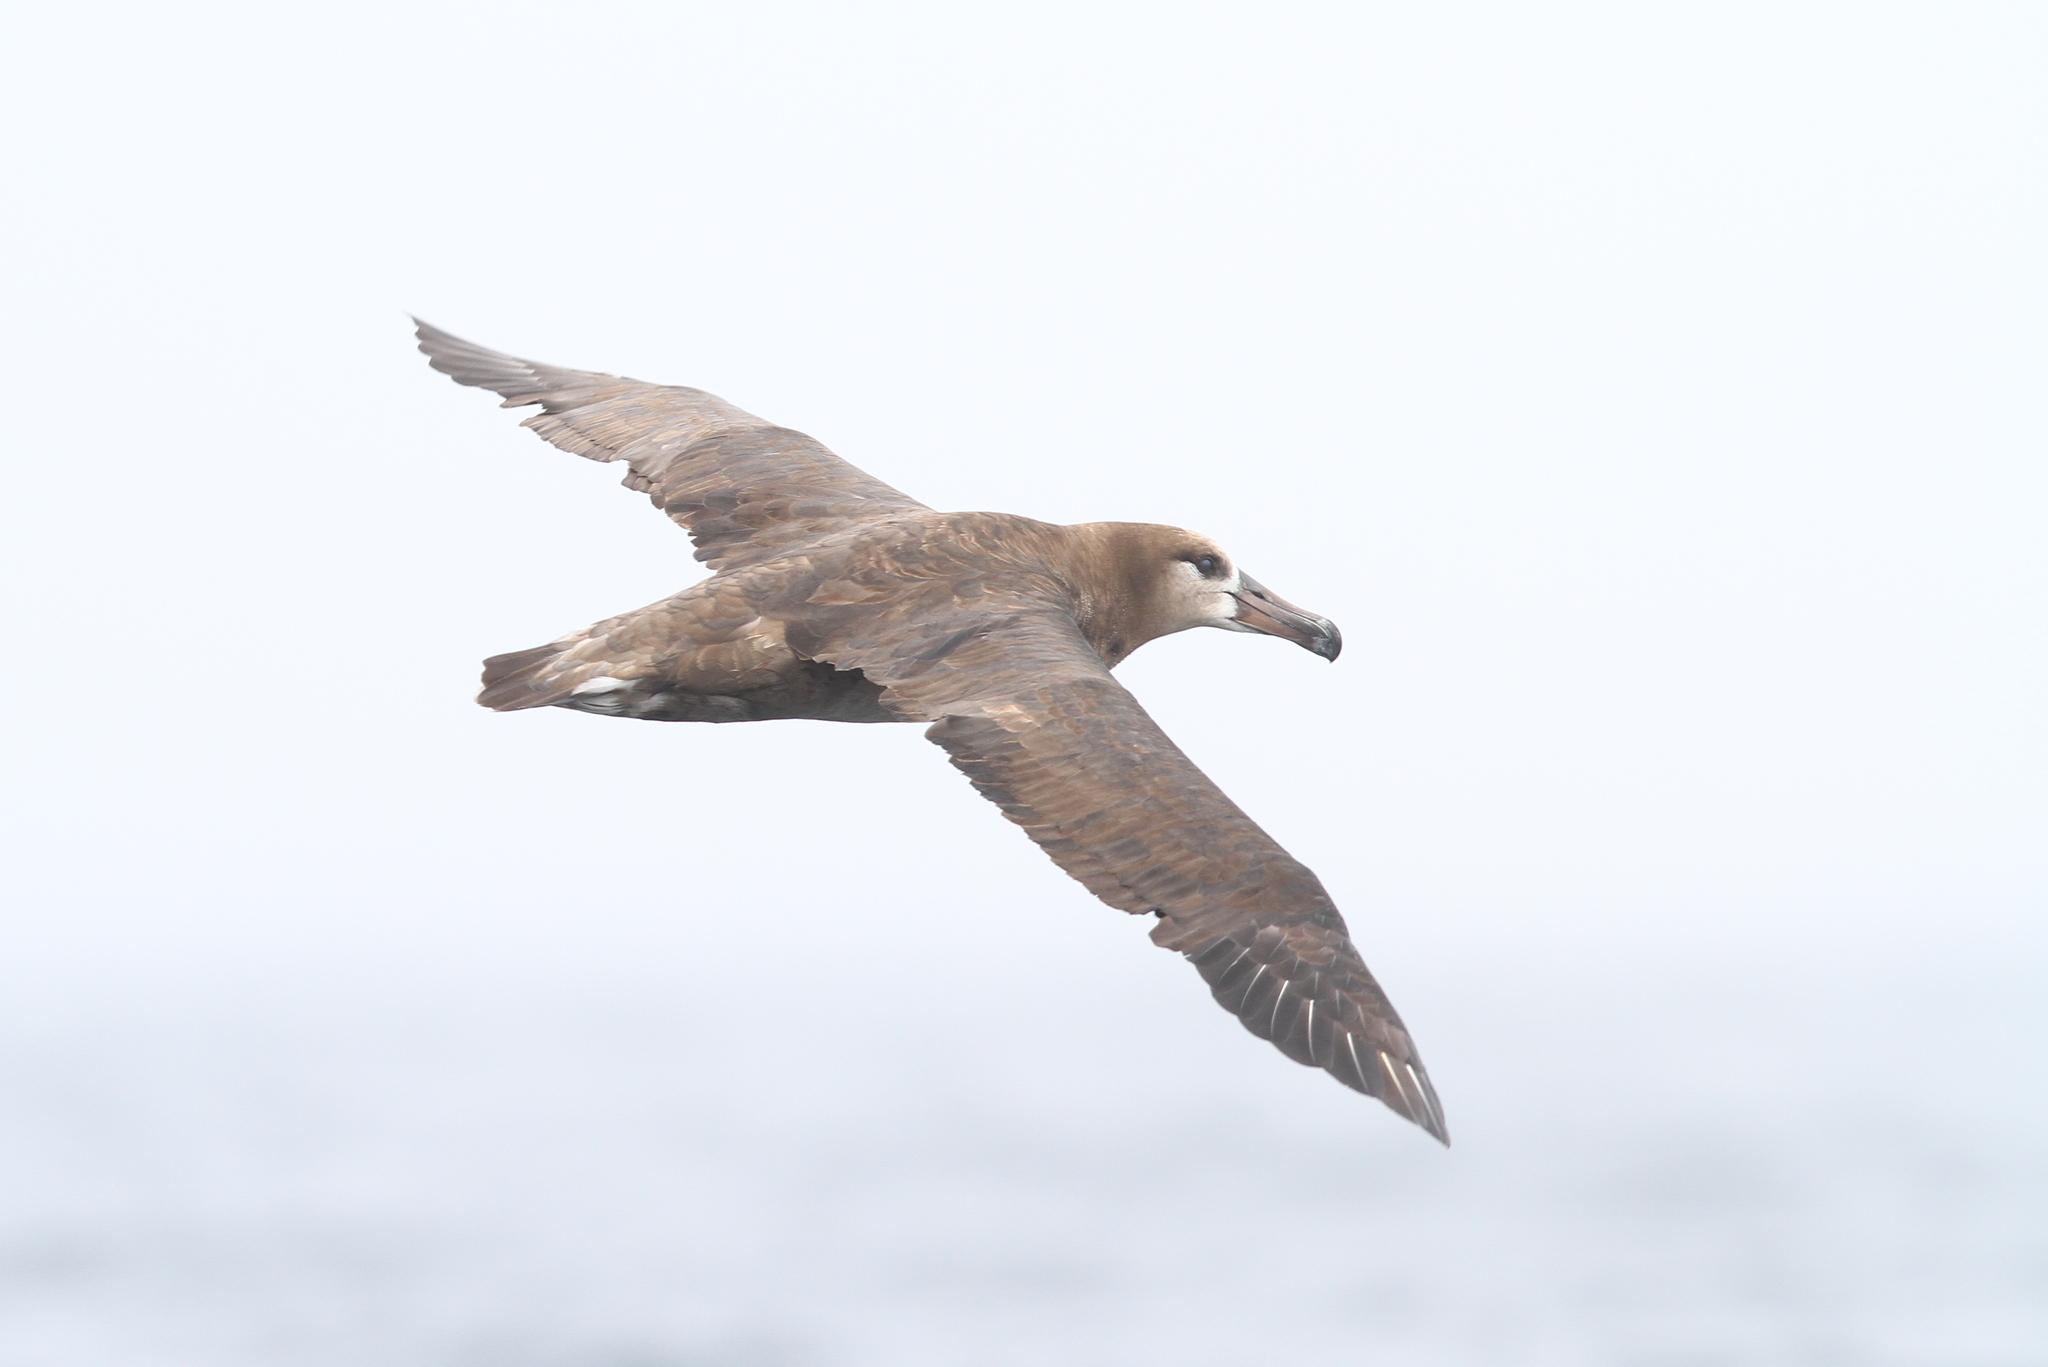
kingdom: Animalia
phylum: Chordata
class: Aves
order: Procellariiformes
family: Diomedeidae
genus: Phoebastria
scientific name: Phoebastria nigripes
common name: Black-footed albatross
